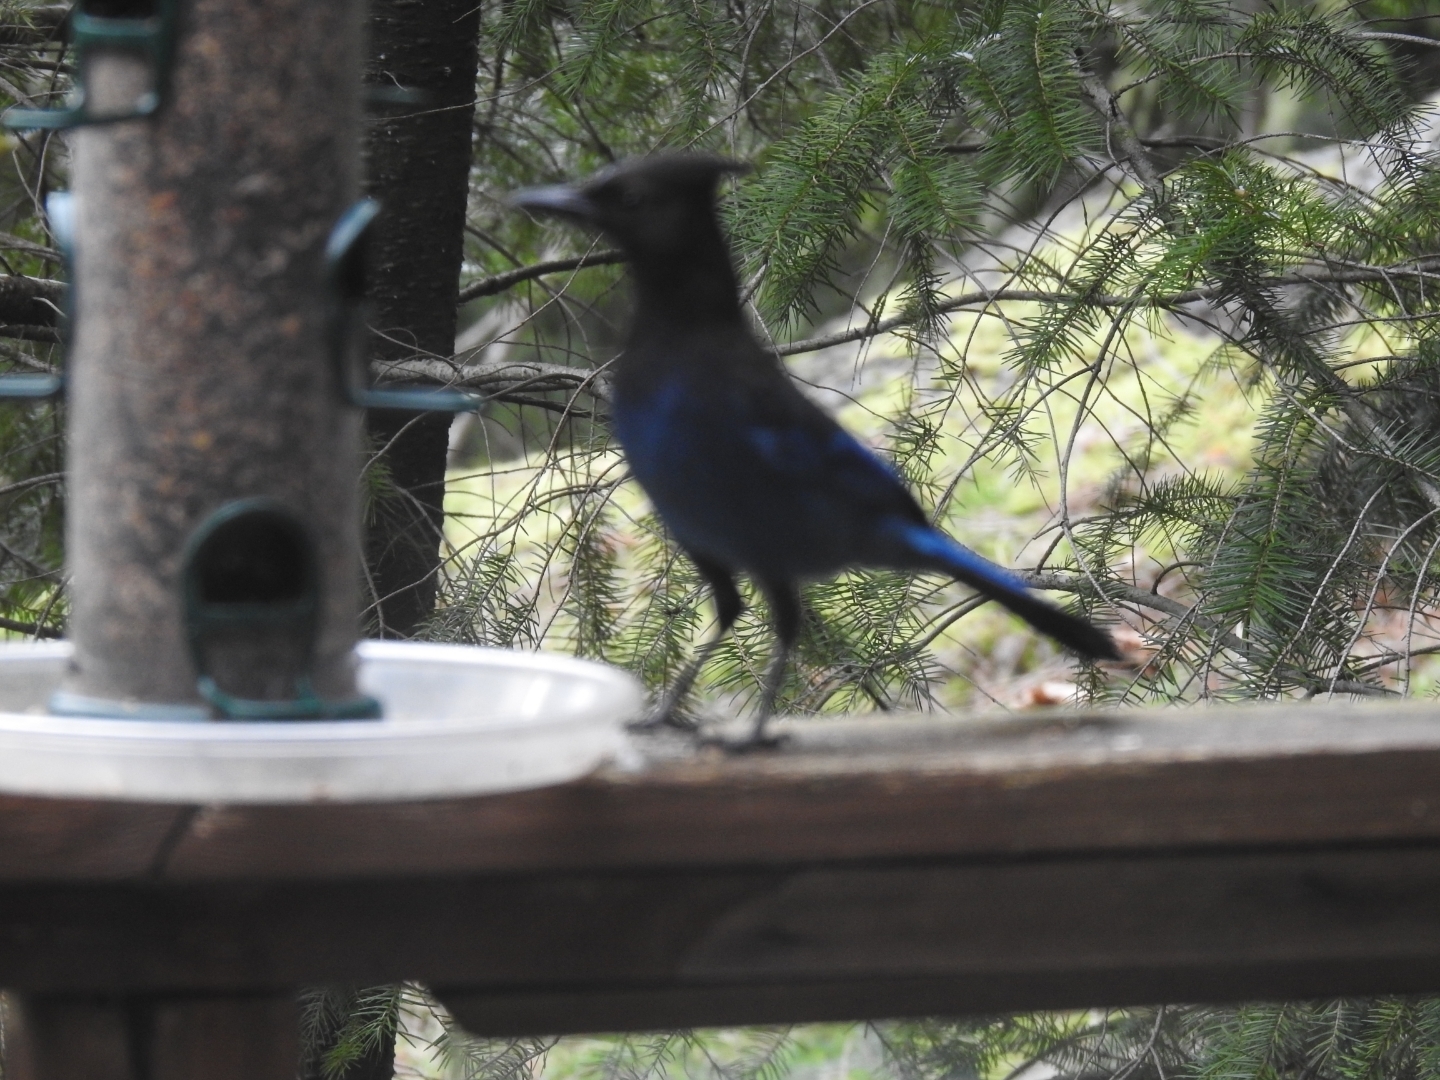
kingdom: Animalia
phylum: Chordata
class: Aves
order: Passeriformes
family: Corvidae
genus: Cyanocitta
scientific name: Cyanocitta stelleri
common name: Steller's jay
